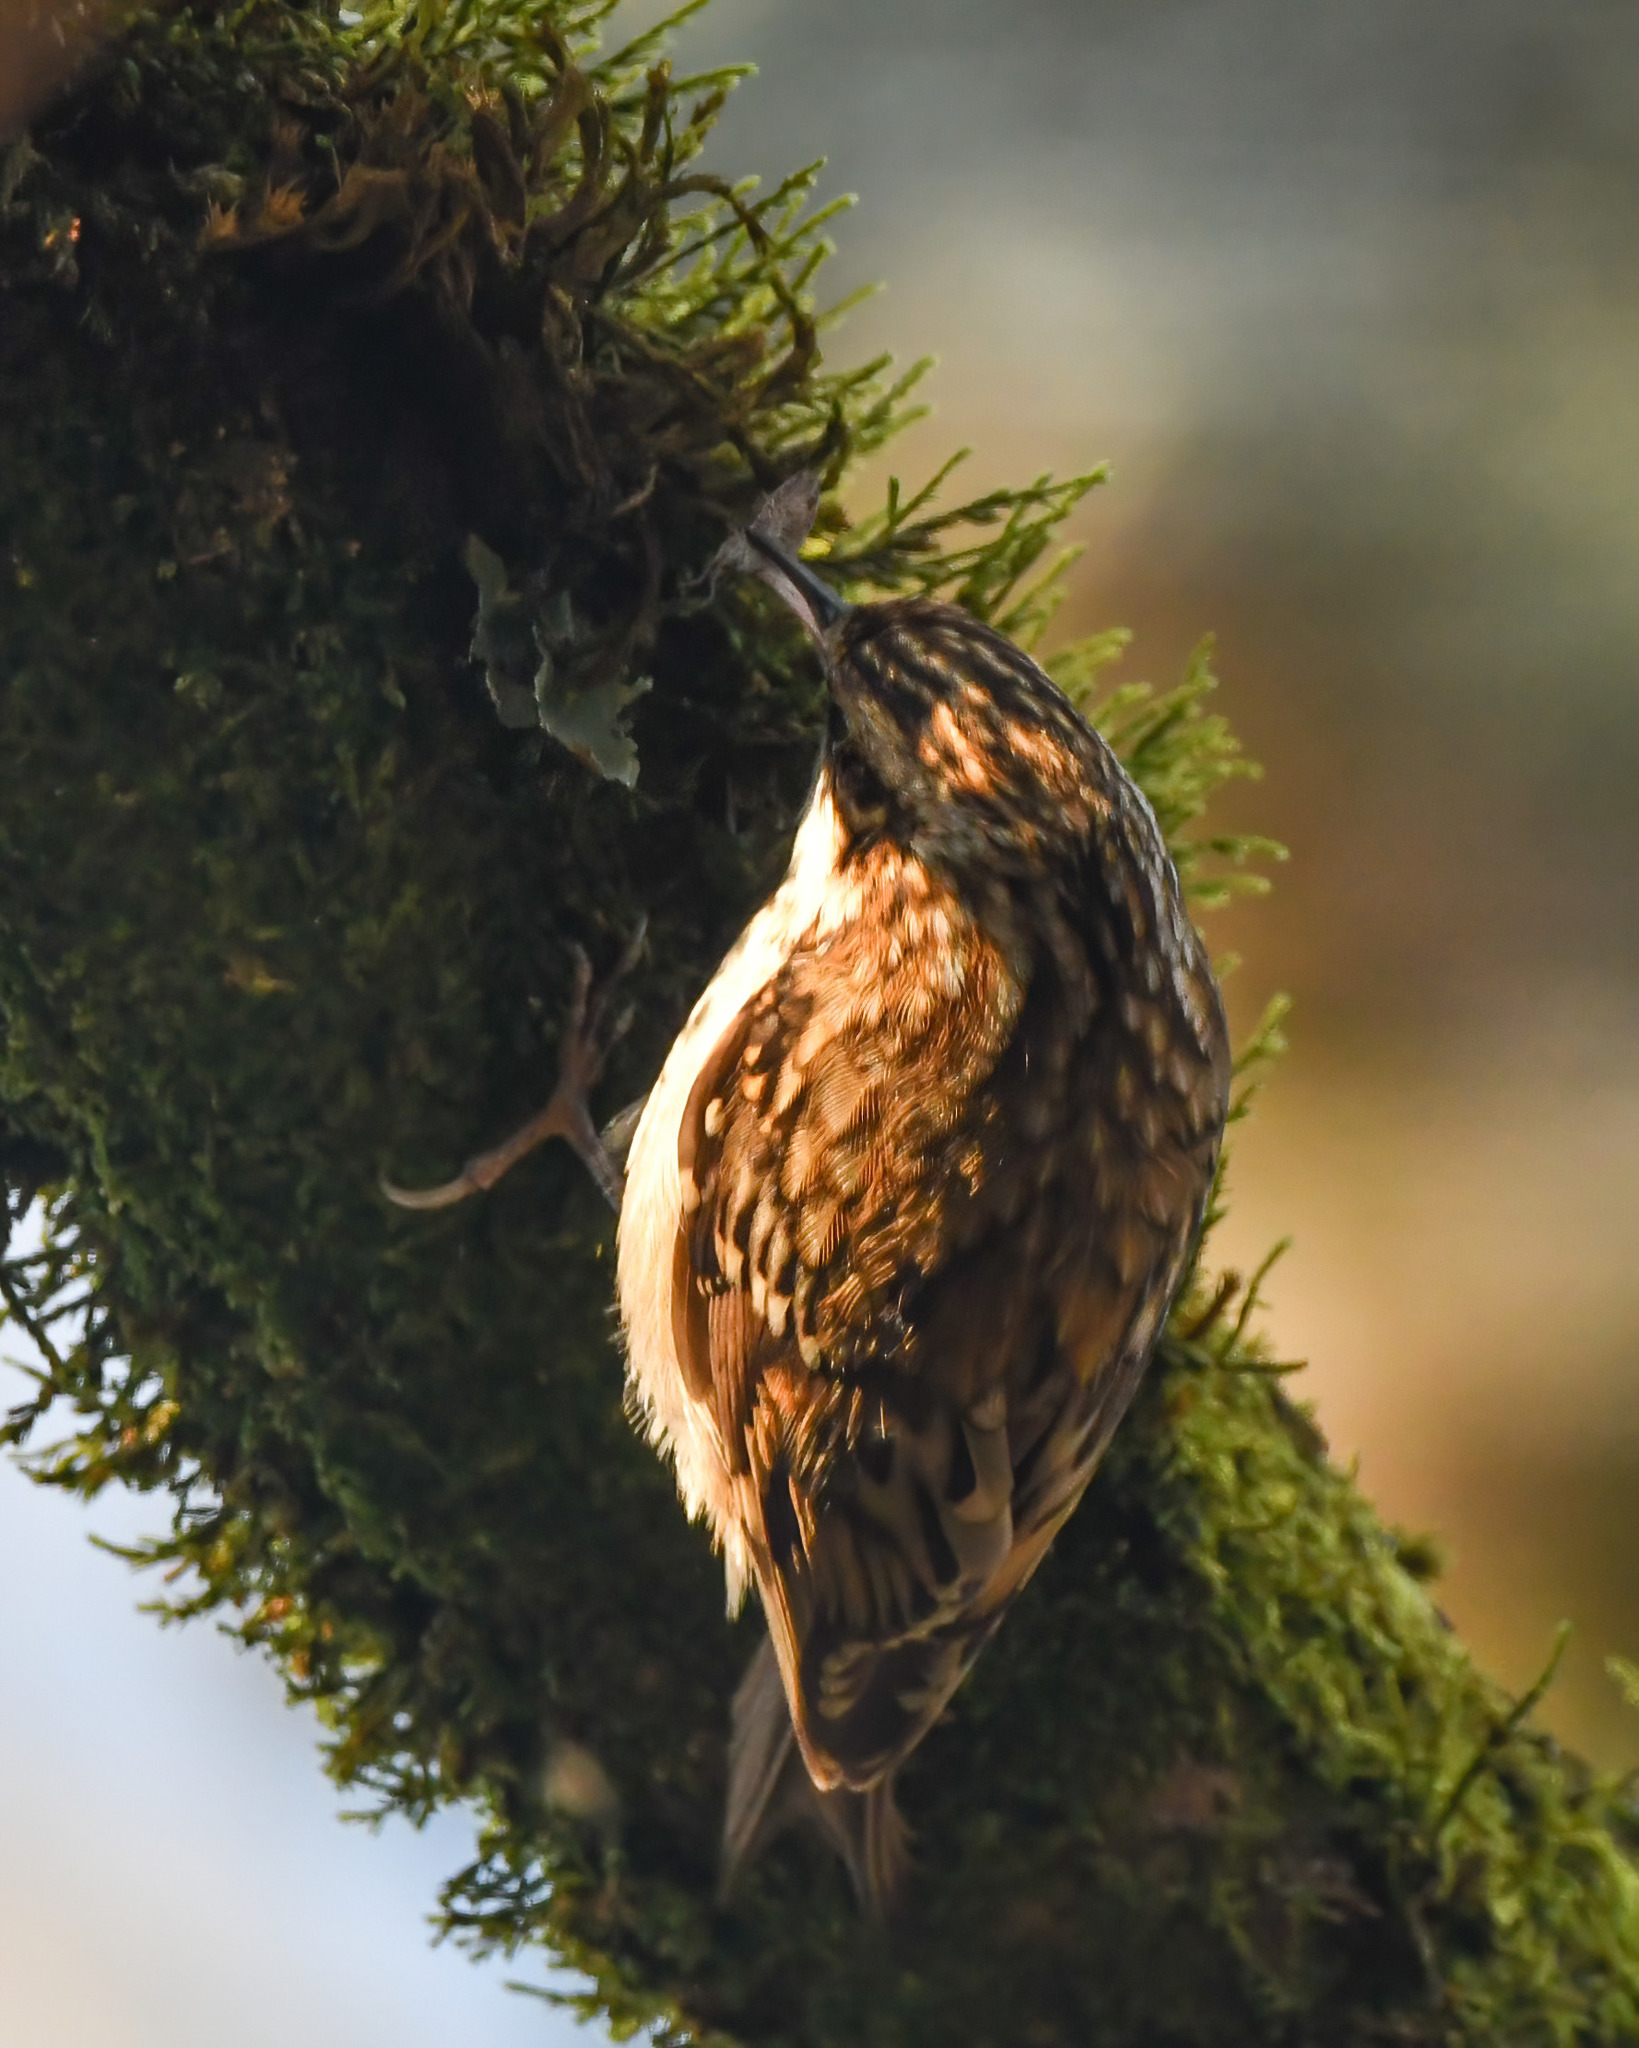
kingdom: Animalia
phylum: Chordata
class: Aves
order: Passeriformes
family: Certhiidae
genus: Certhia
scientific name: Certhia familiaris
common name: Eurasian treecreeper
